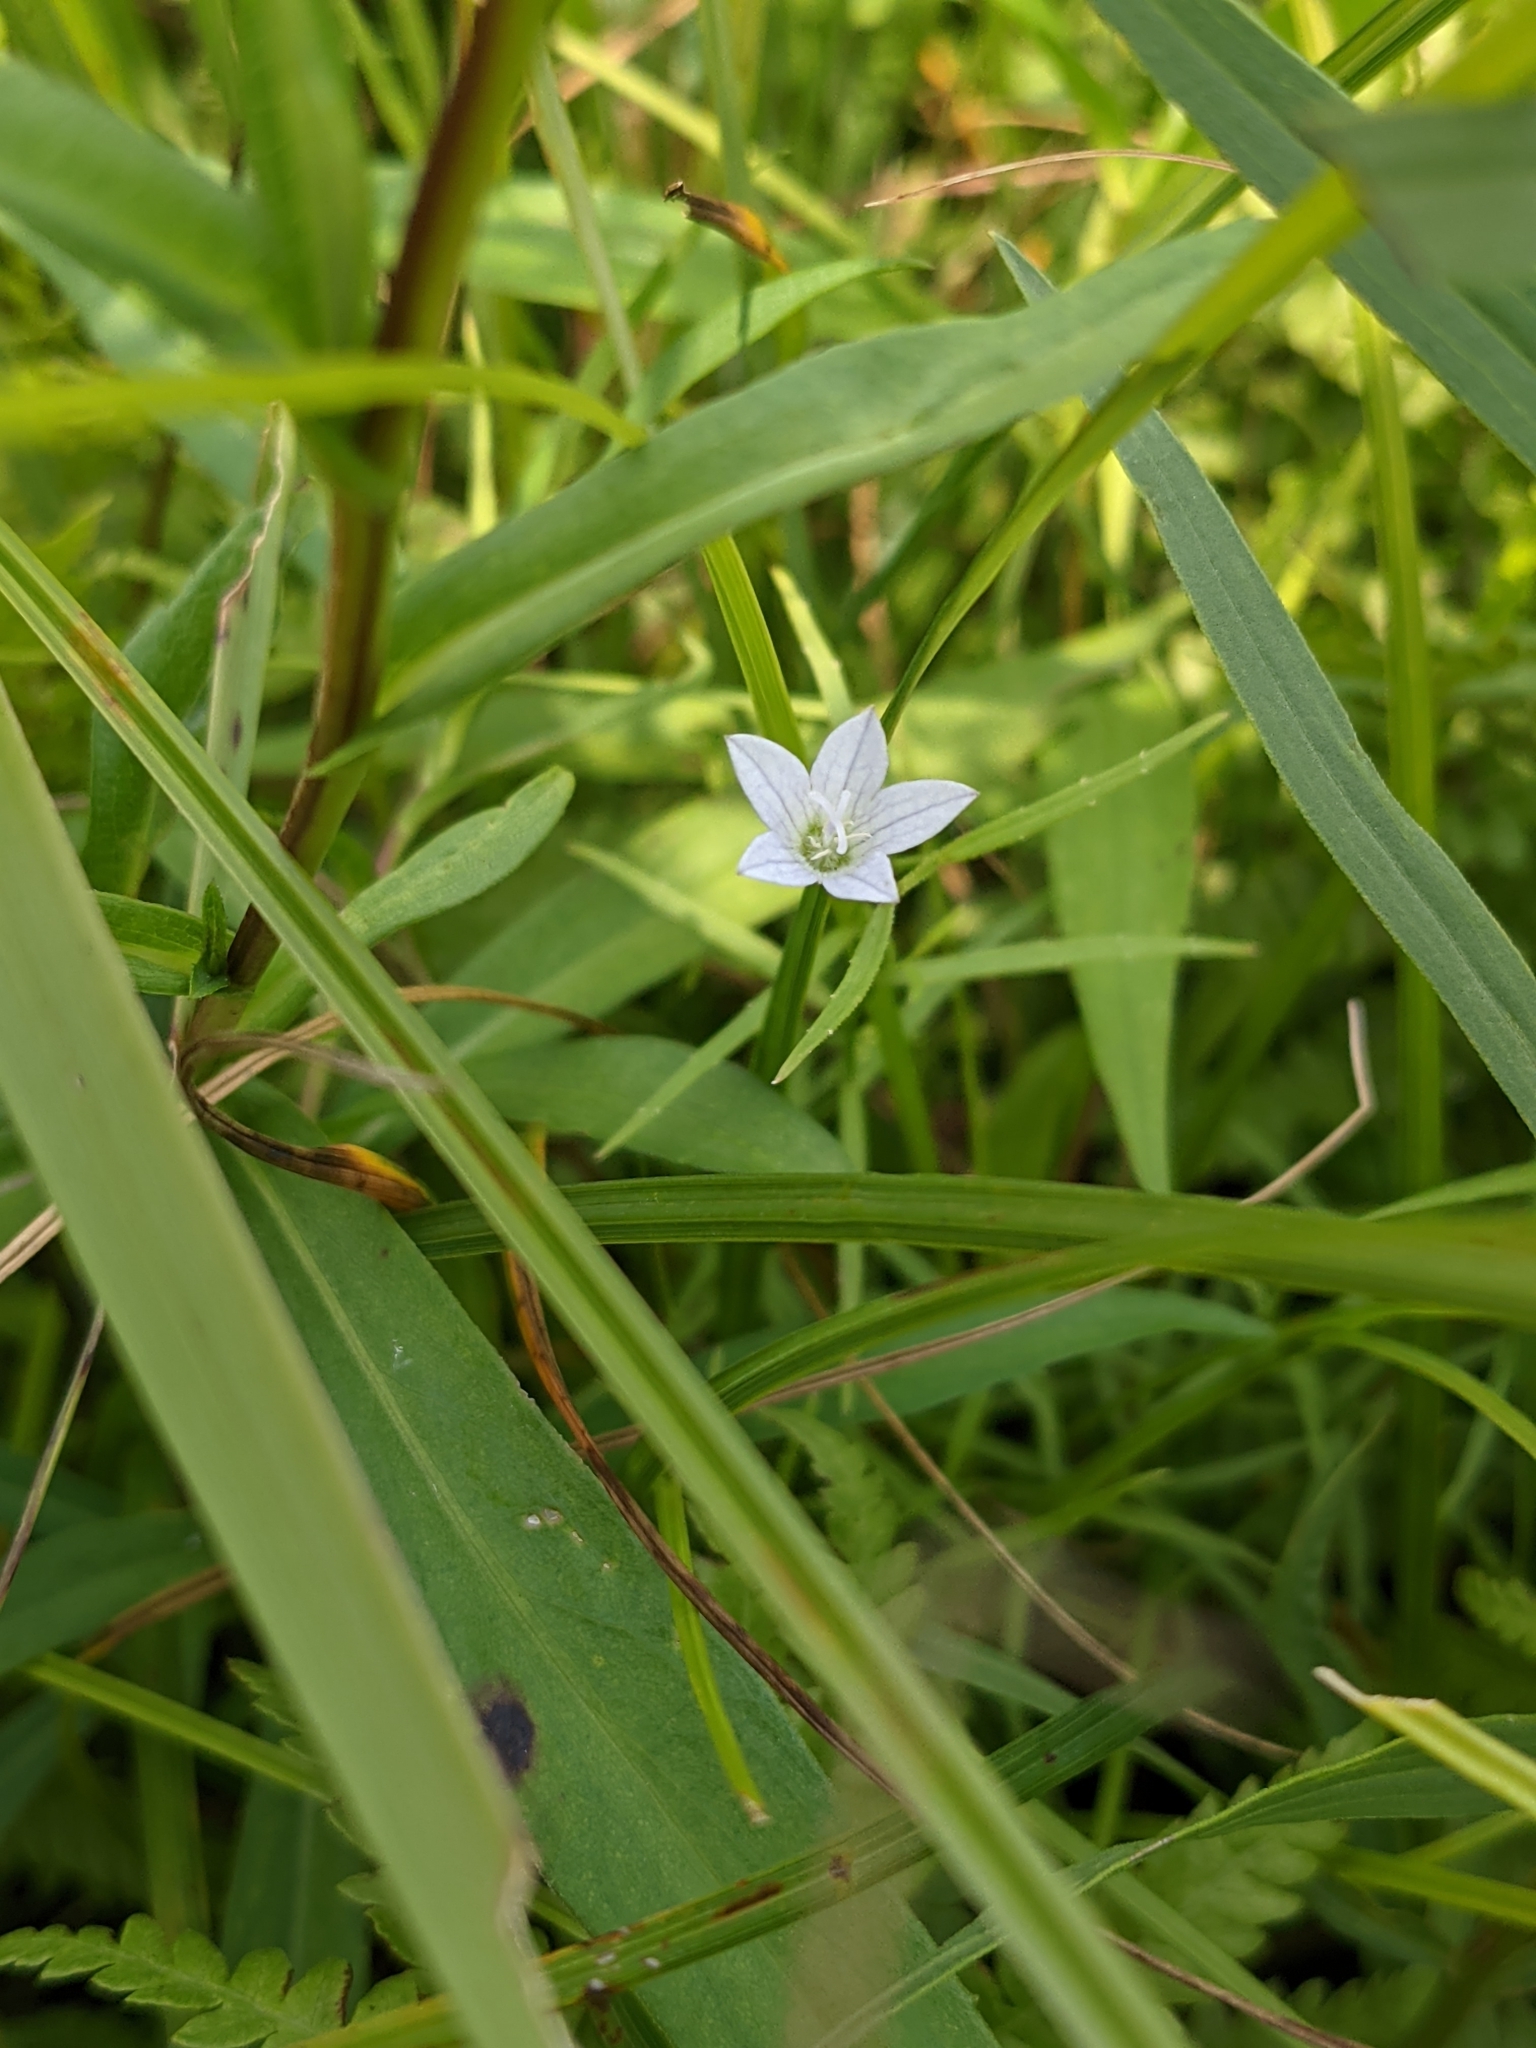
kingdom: Plantae
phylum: Tracheophyta
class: Magnoliopsida
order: Asterales
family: Campanulaceae
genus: Palustricodon
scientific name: Palustricodon aparinoides
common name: Bedstraw bellflower
